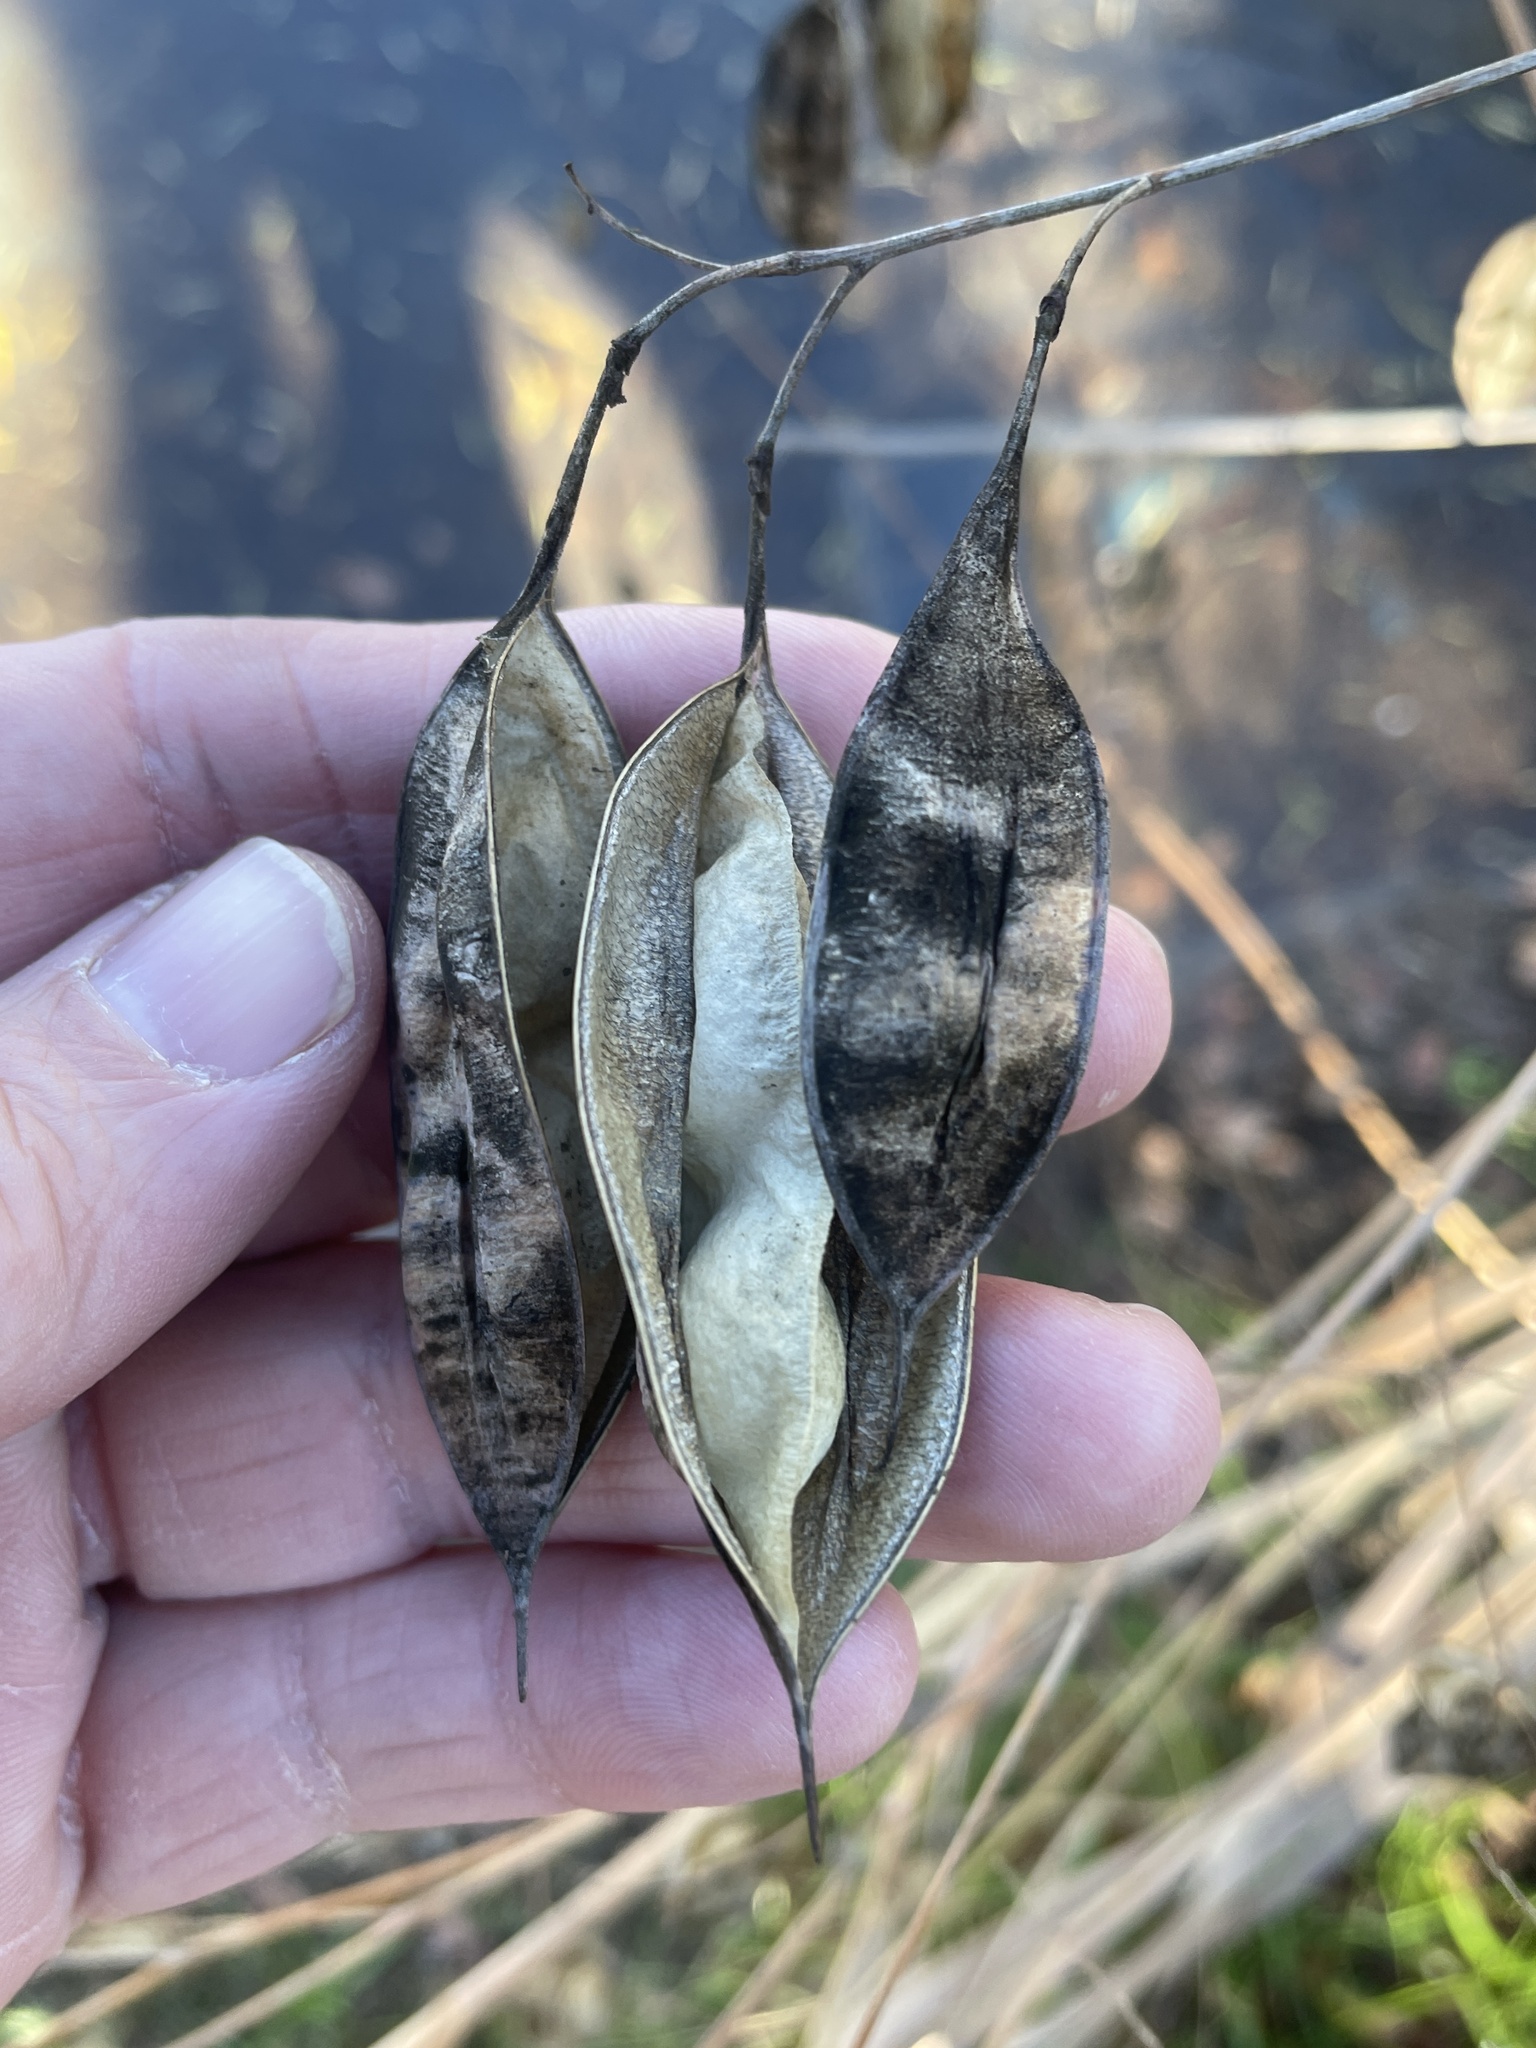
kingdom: Plantae
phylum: Tracheophyta
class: Magnoliopsida
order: Fabales
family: Fabaceae
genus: Sesbania
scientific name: Sesbania vesicaria
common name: Bagpod
